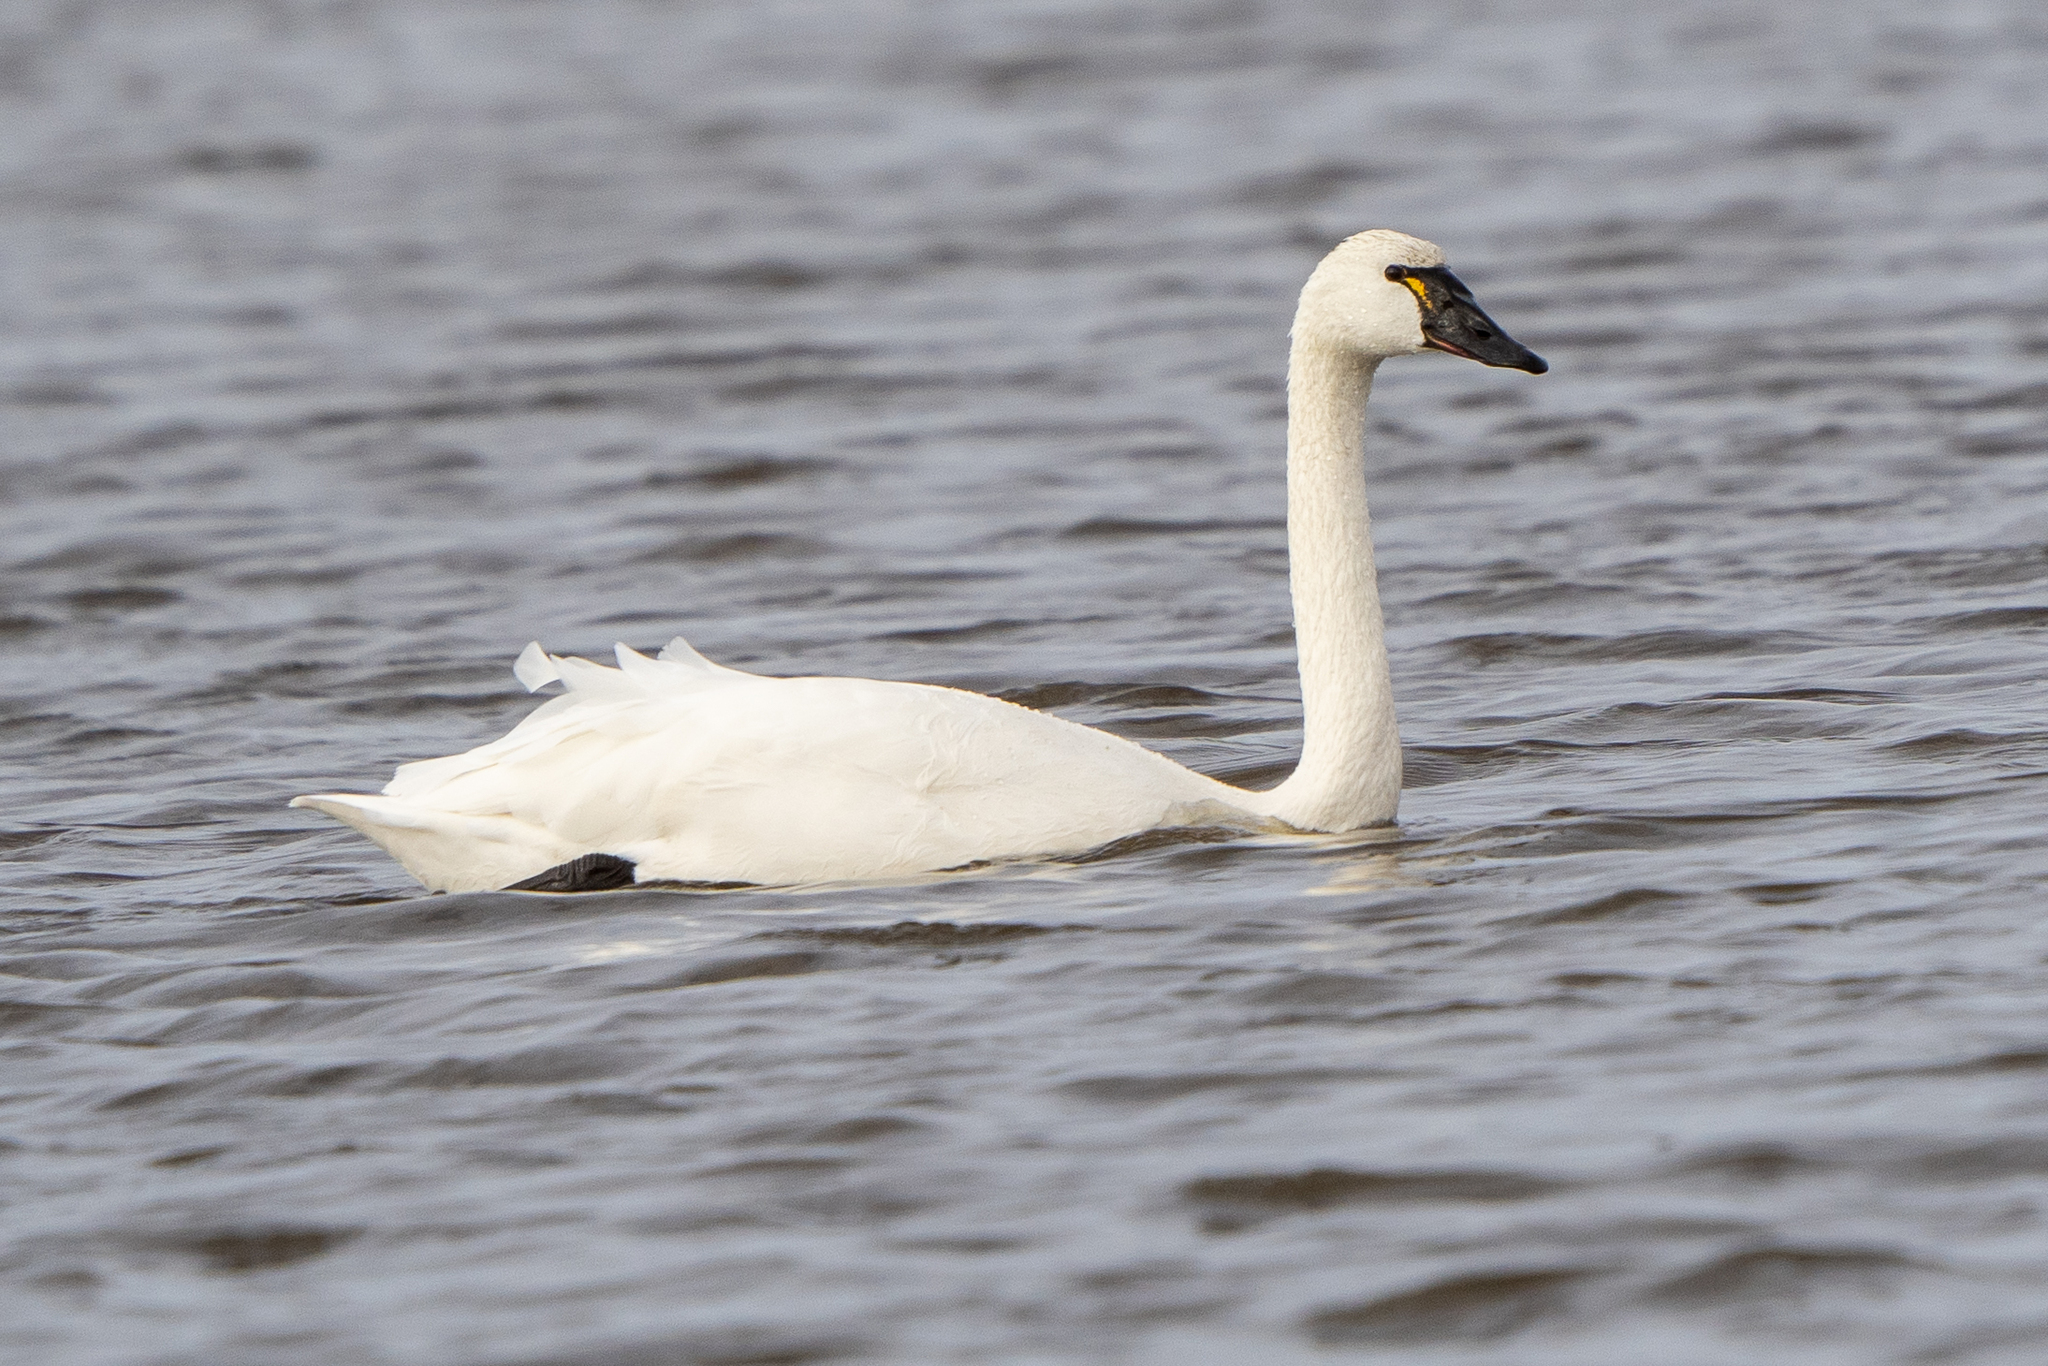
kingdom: Animalia
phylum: Chordata
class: Aves
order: Anseriformes
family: Anatidae
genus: Cygnus
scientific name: Cygnus columbianus
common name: Tundra swan
